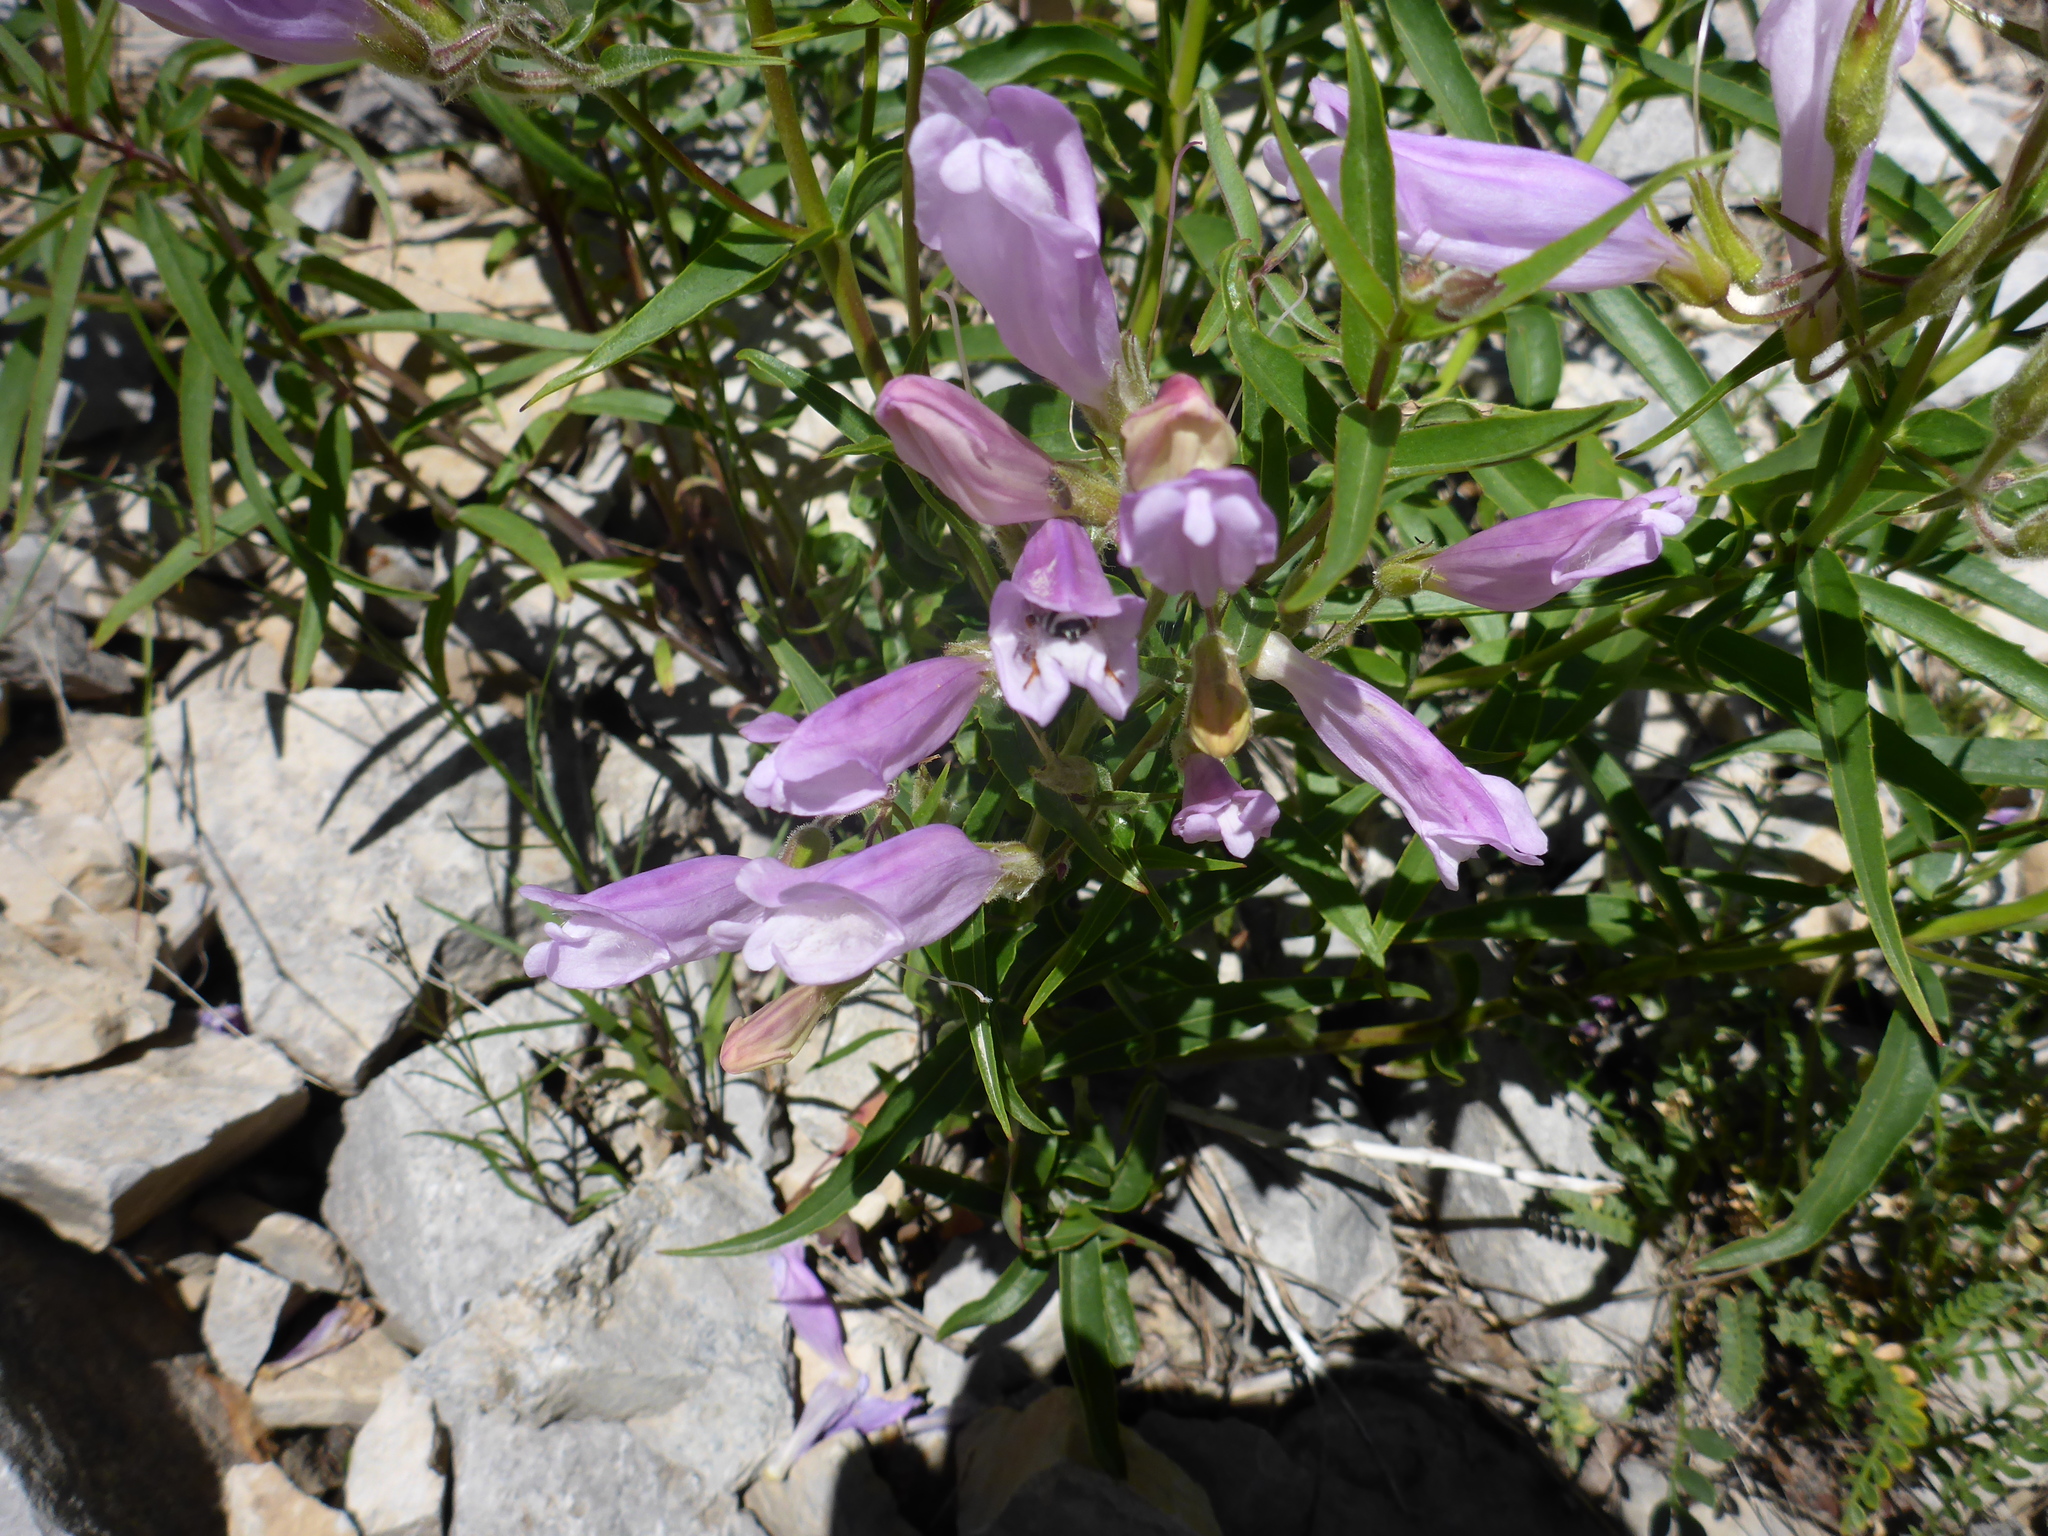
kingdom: Plantae
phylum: Tracheophyta
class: Magnoliopsida
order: Lamiales
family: Plantaginaceae
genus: Penstemon
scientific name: Penstemon lyalli
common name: Lyall's beardtongue
